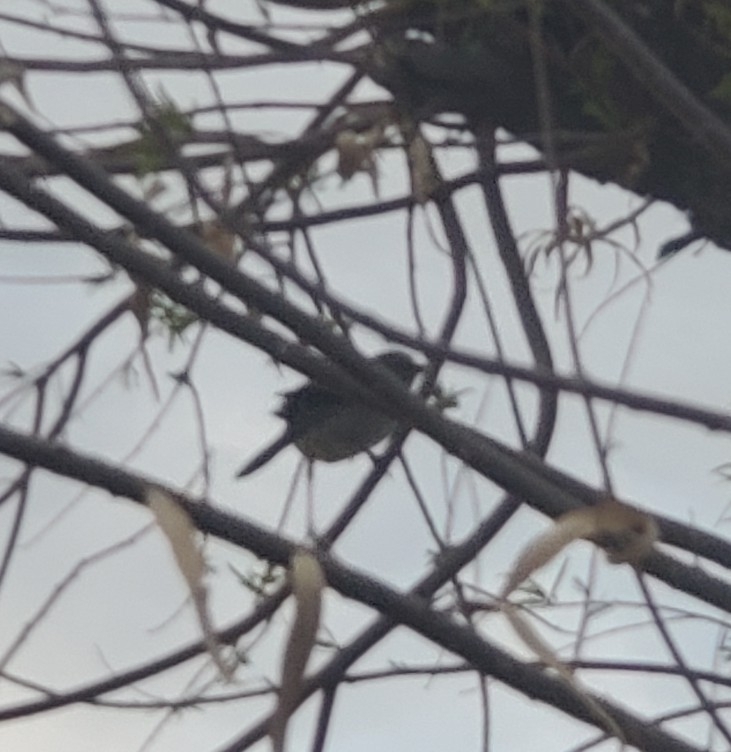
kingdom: Animalia
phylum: Chordata
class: Aves
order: Passeriformes
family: Mimidae
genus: Mimus
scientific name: Mimus polyglottos
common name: Northern mockingbird
